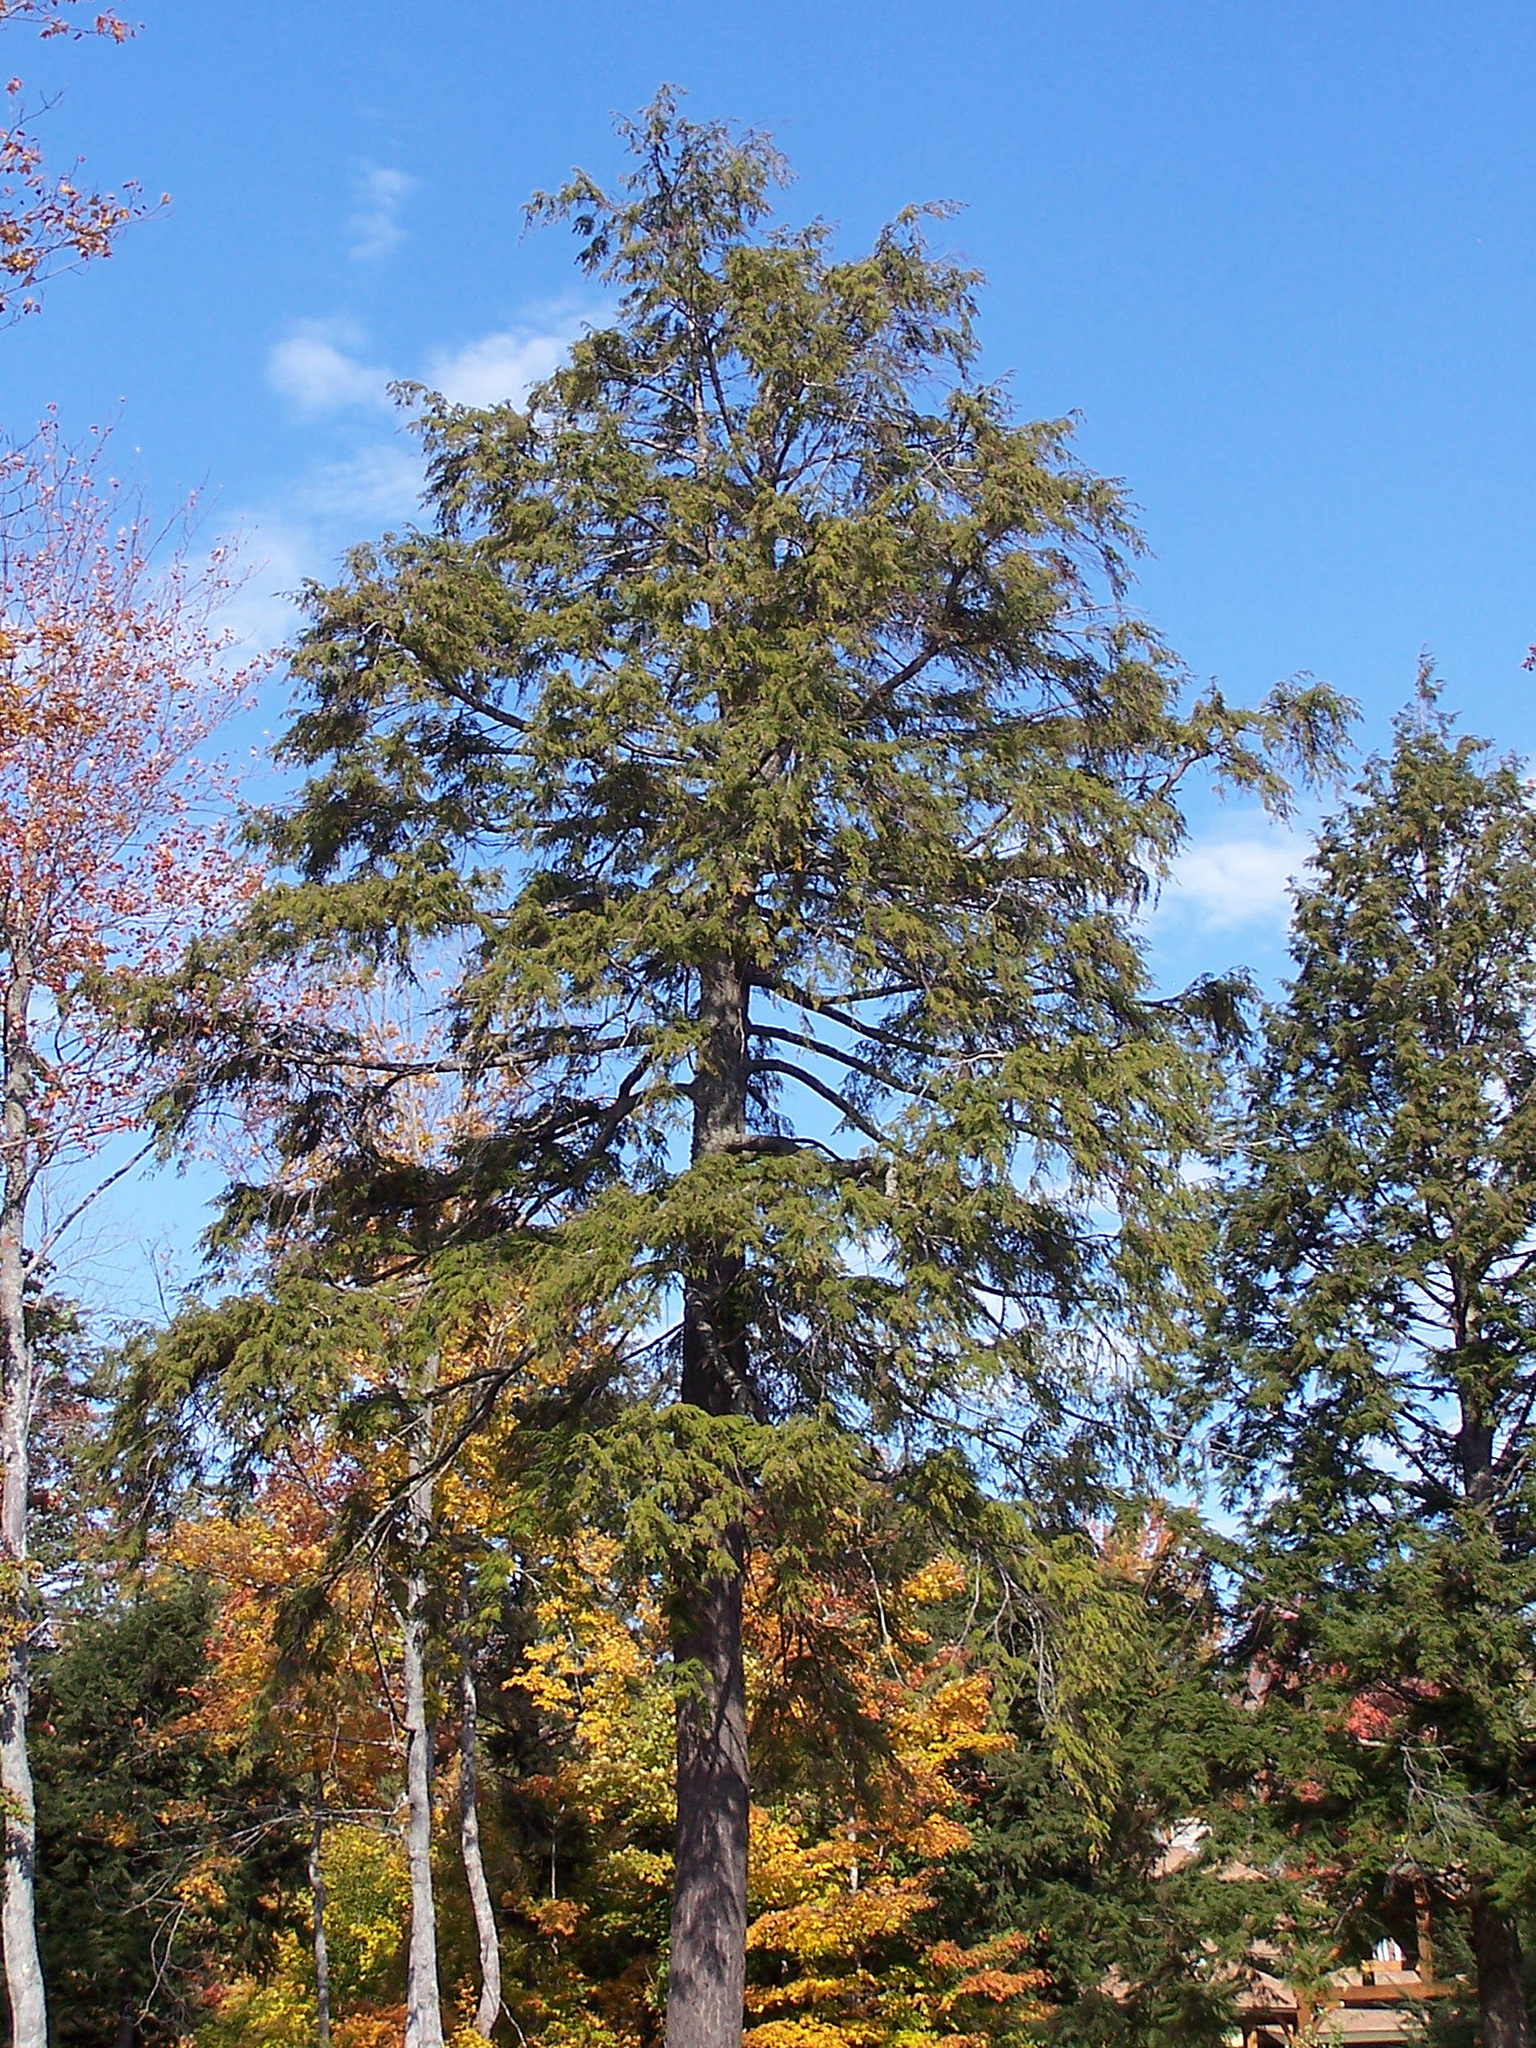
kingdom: Plantae
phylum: Tracheophyta
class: Pinopsida
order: Pinales
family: Pinaceae
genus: Tsuga
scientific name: Tsuga canadensis
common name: Eastern hemlock
